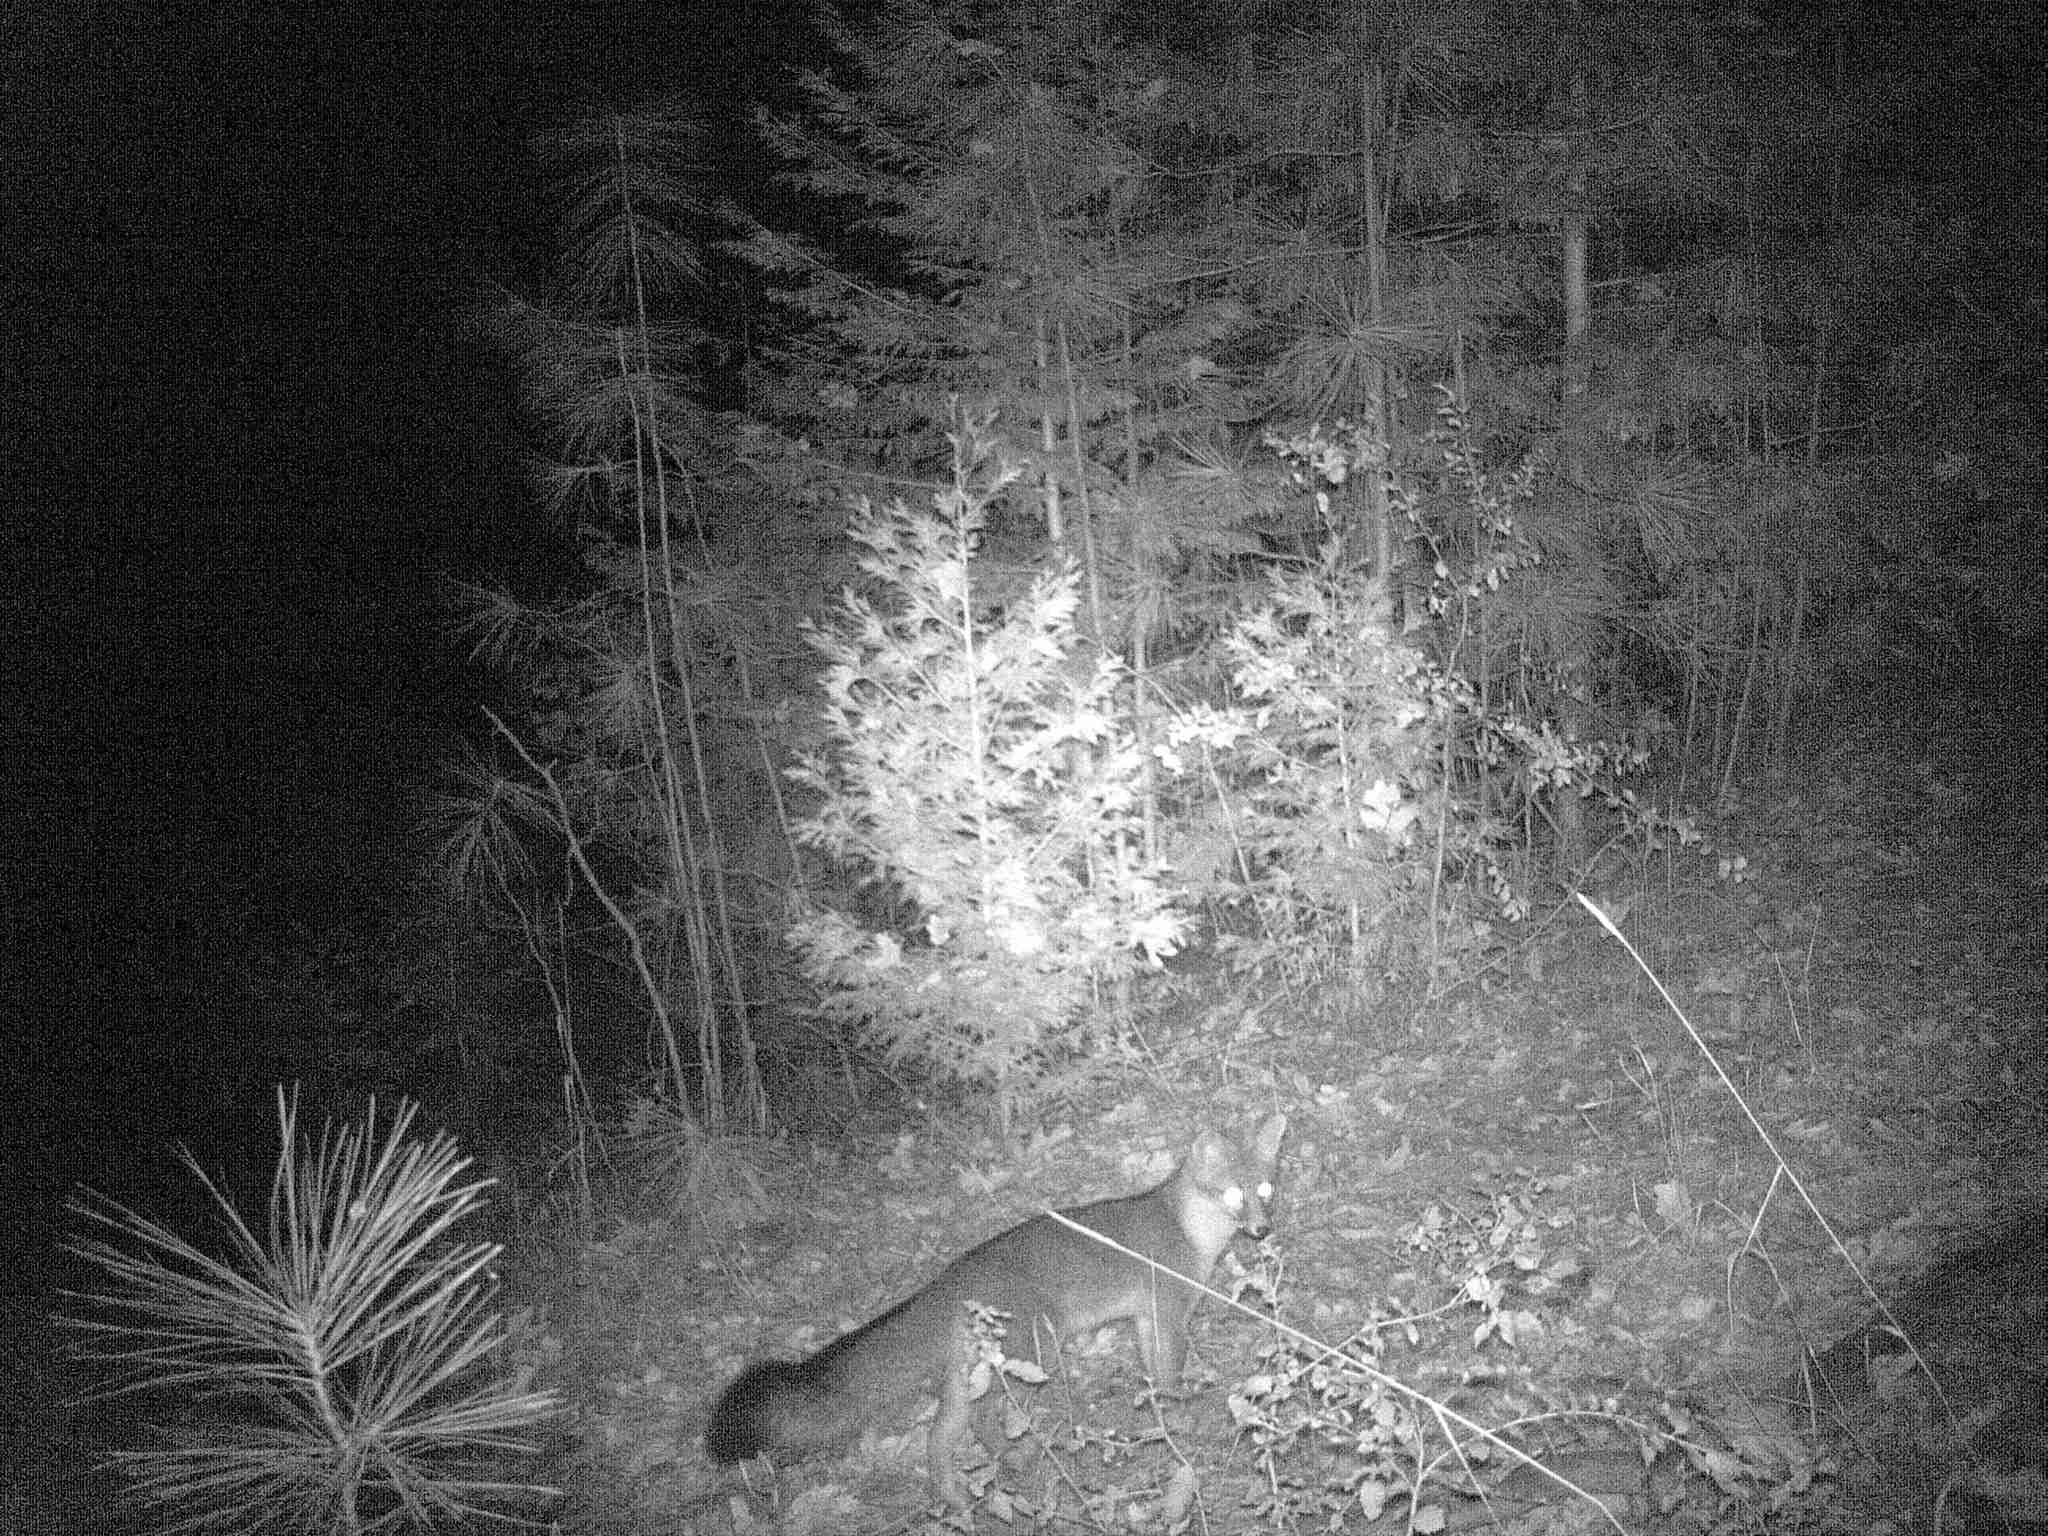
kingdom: Animalia
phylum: Chordata
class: Mammalia
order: Carnivora
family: Canidae
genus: Urocyon
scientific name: Urocyon cinereoargenteus
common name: Gray fox
